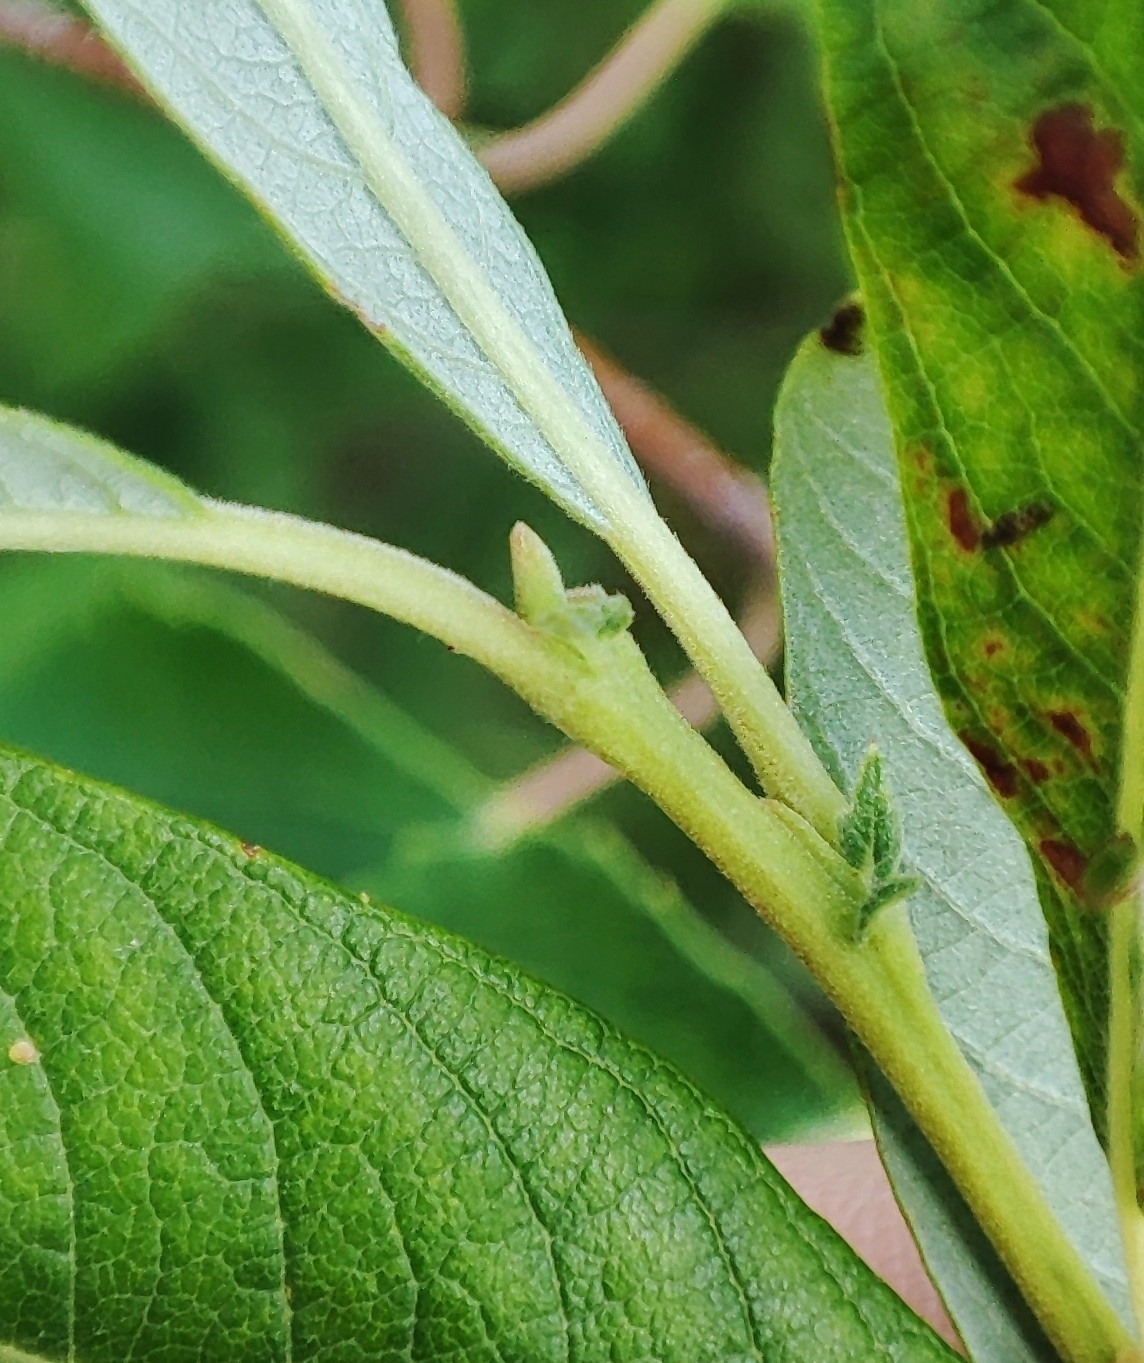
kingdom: Plantae
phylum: Tracheophyta
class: Magnoliopsida
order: Malpighiales
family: Salicaceae
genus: Salix
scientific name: Salix cinerea
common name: Common sallow
